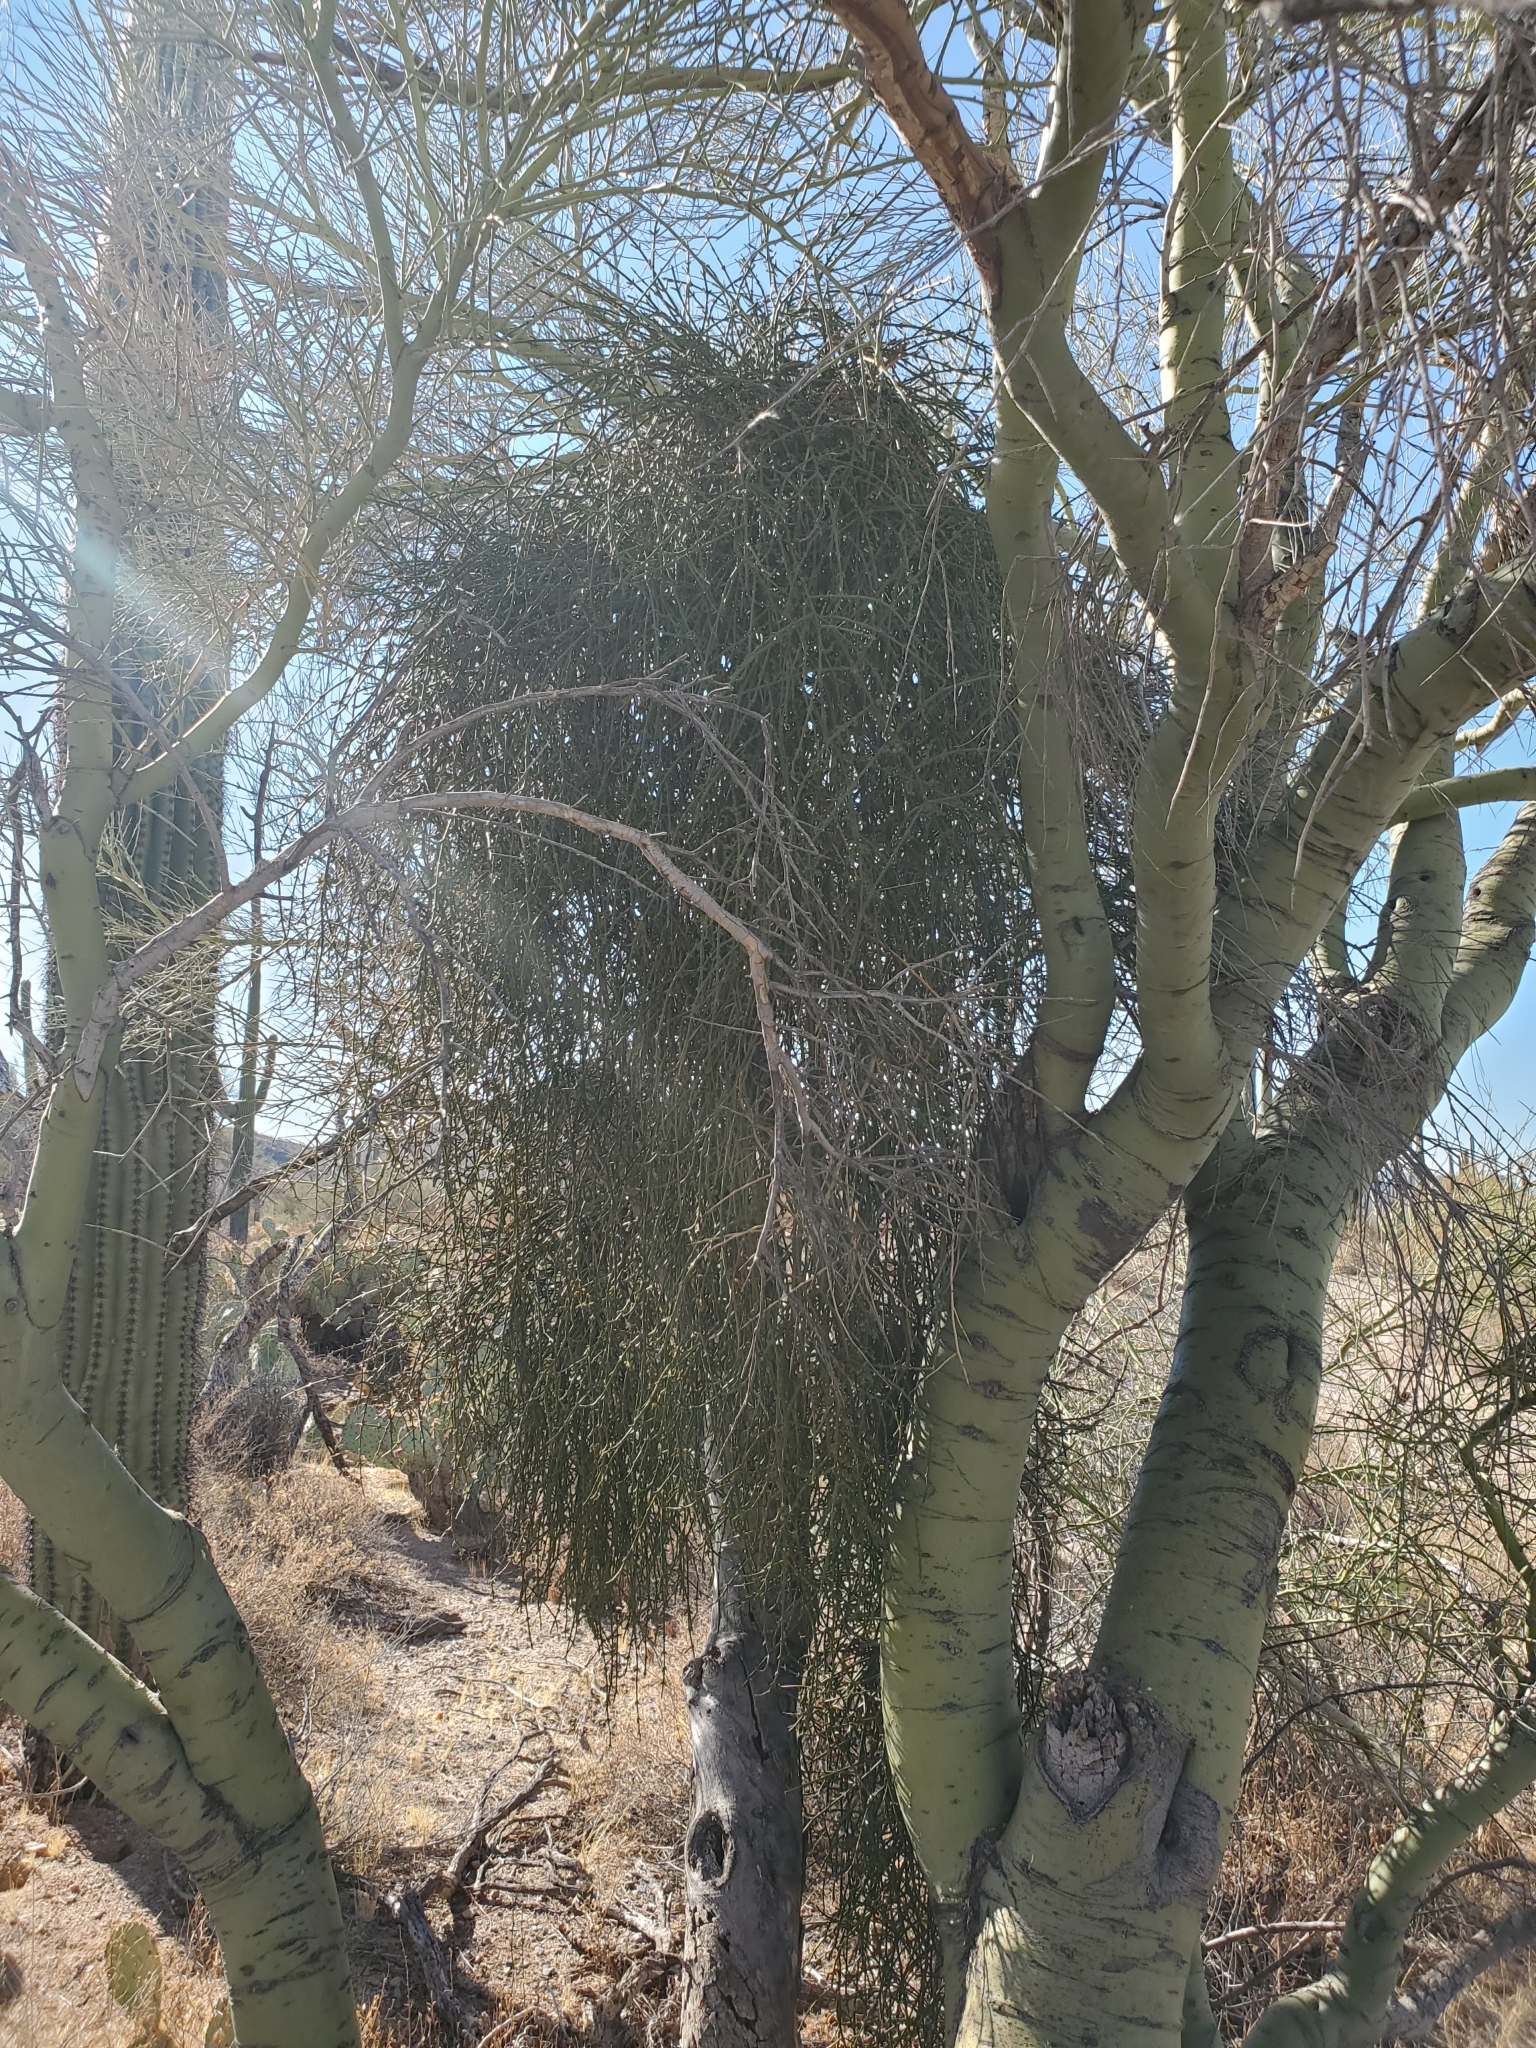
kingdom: Plantae
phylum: Tracheophyta
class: Magnoliopsida
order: Santalales
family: Viscaceae
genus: Phoradendron
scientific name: Phoradendron californicum
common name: Acacia mistletoe
